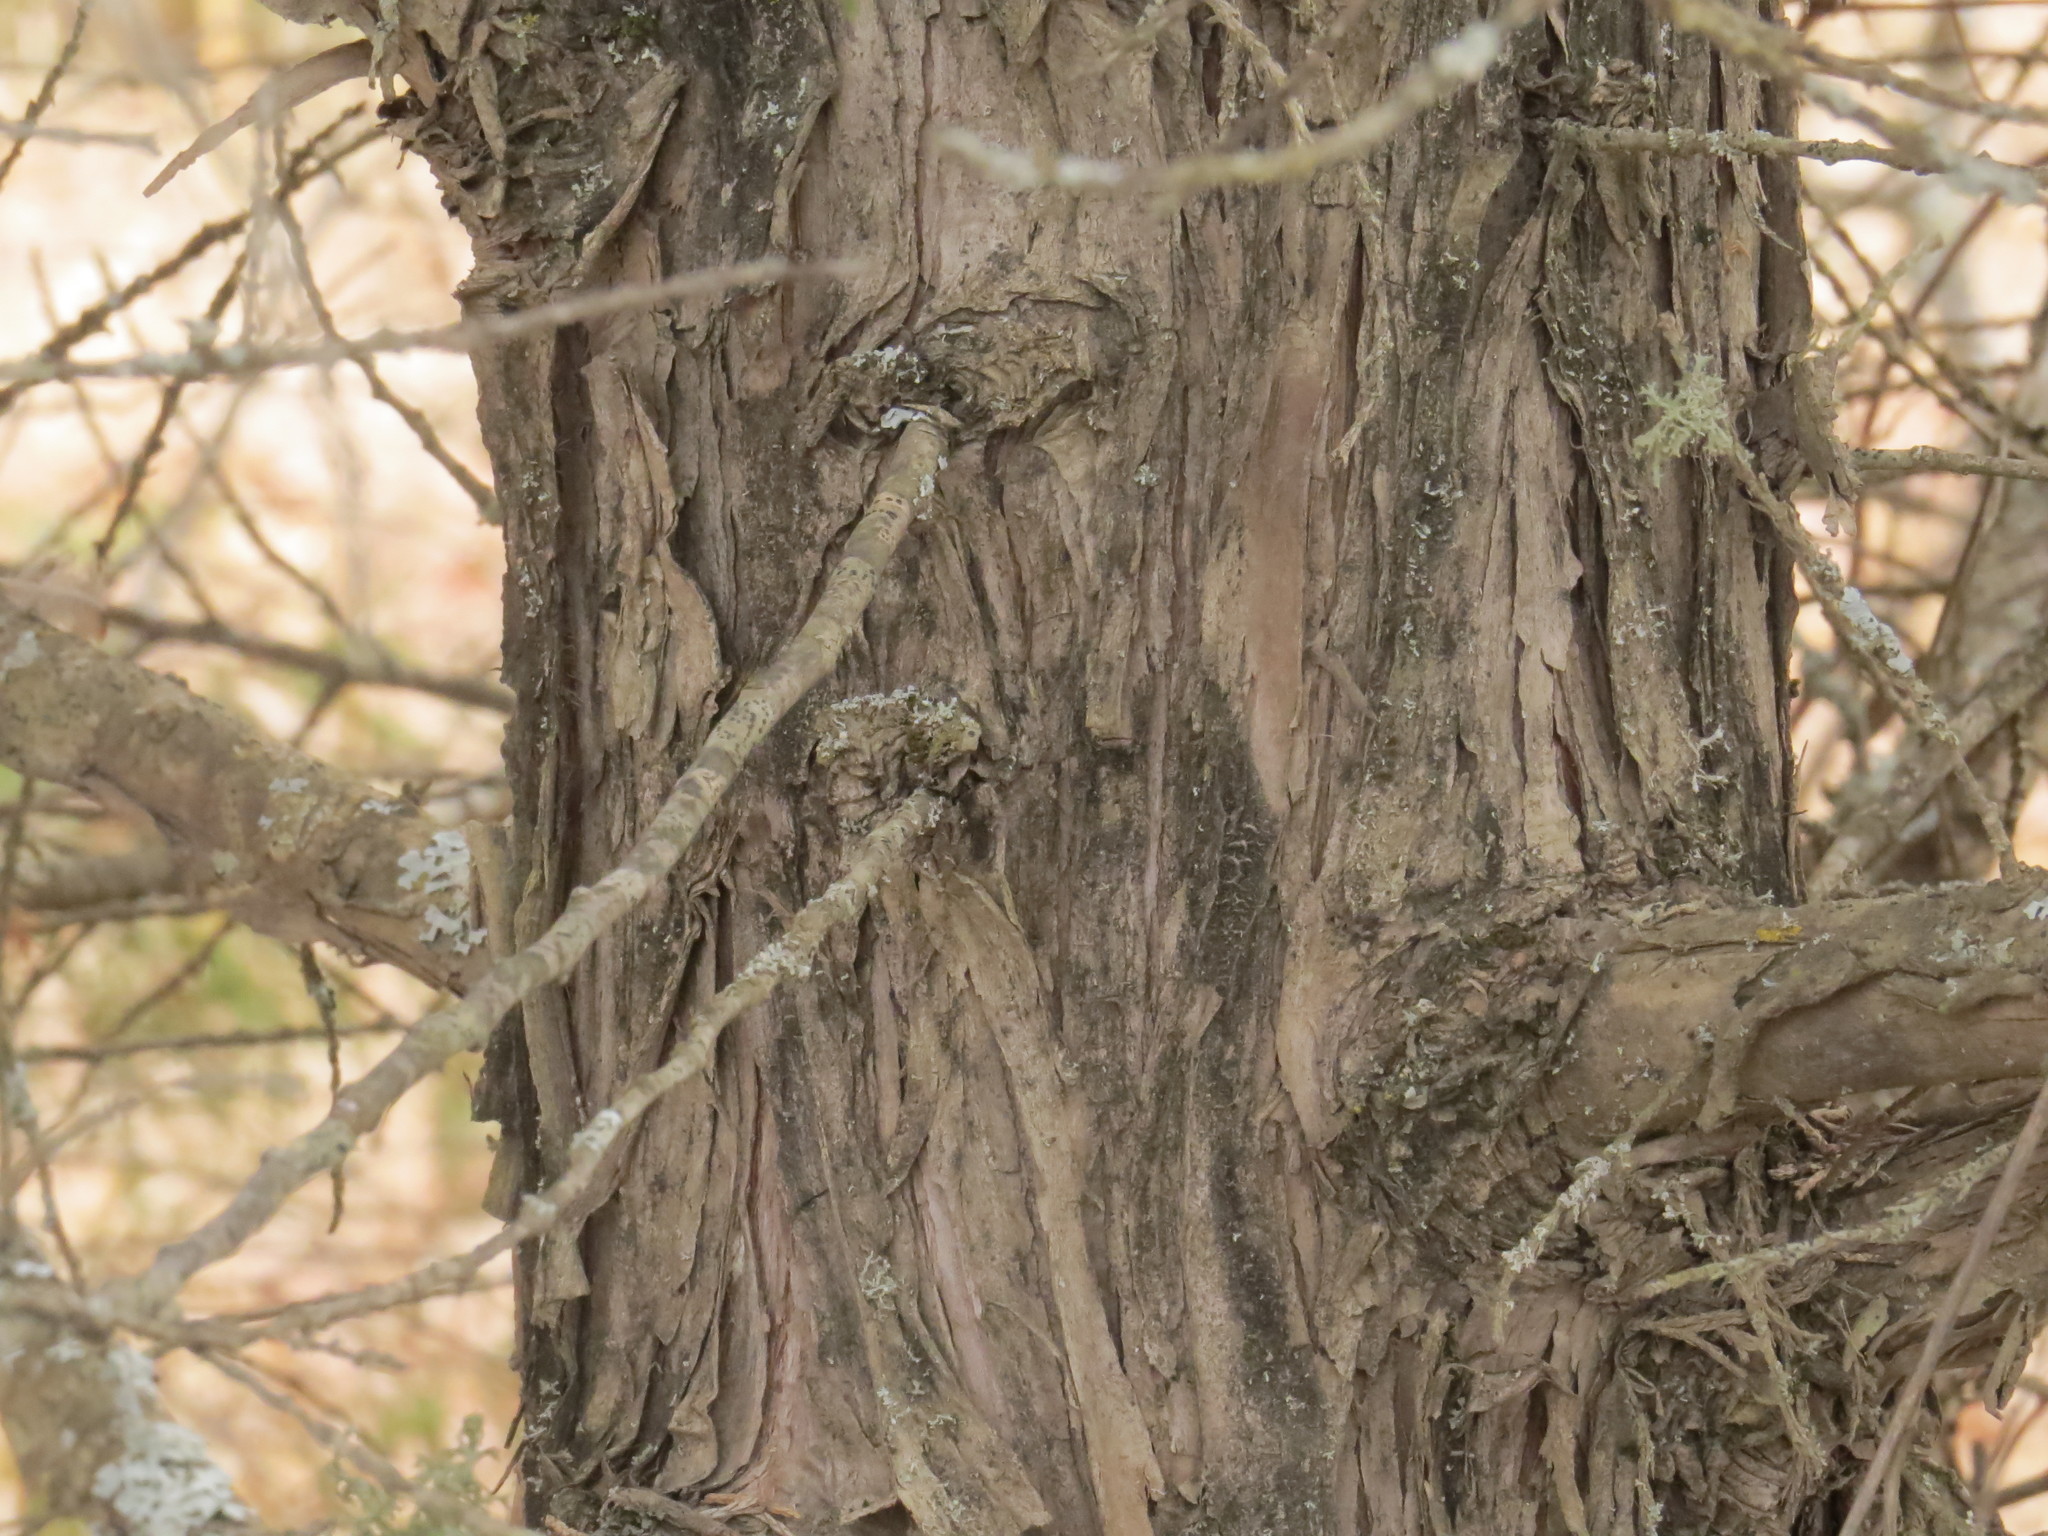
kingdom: Plantae
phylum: Tracheophyta
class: Pinopsida
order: Pinales
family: Cupressaceae
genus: Juniperus
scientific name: Juniperus virginiana
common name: Red juniper
